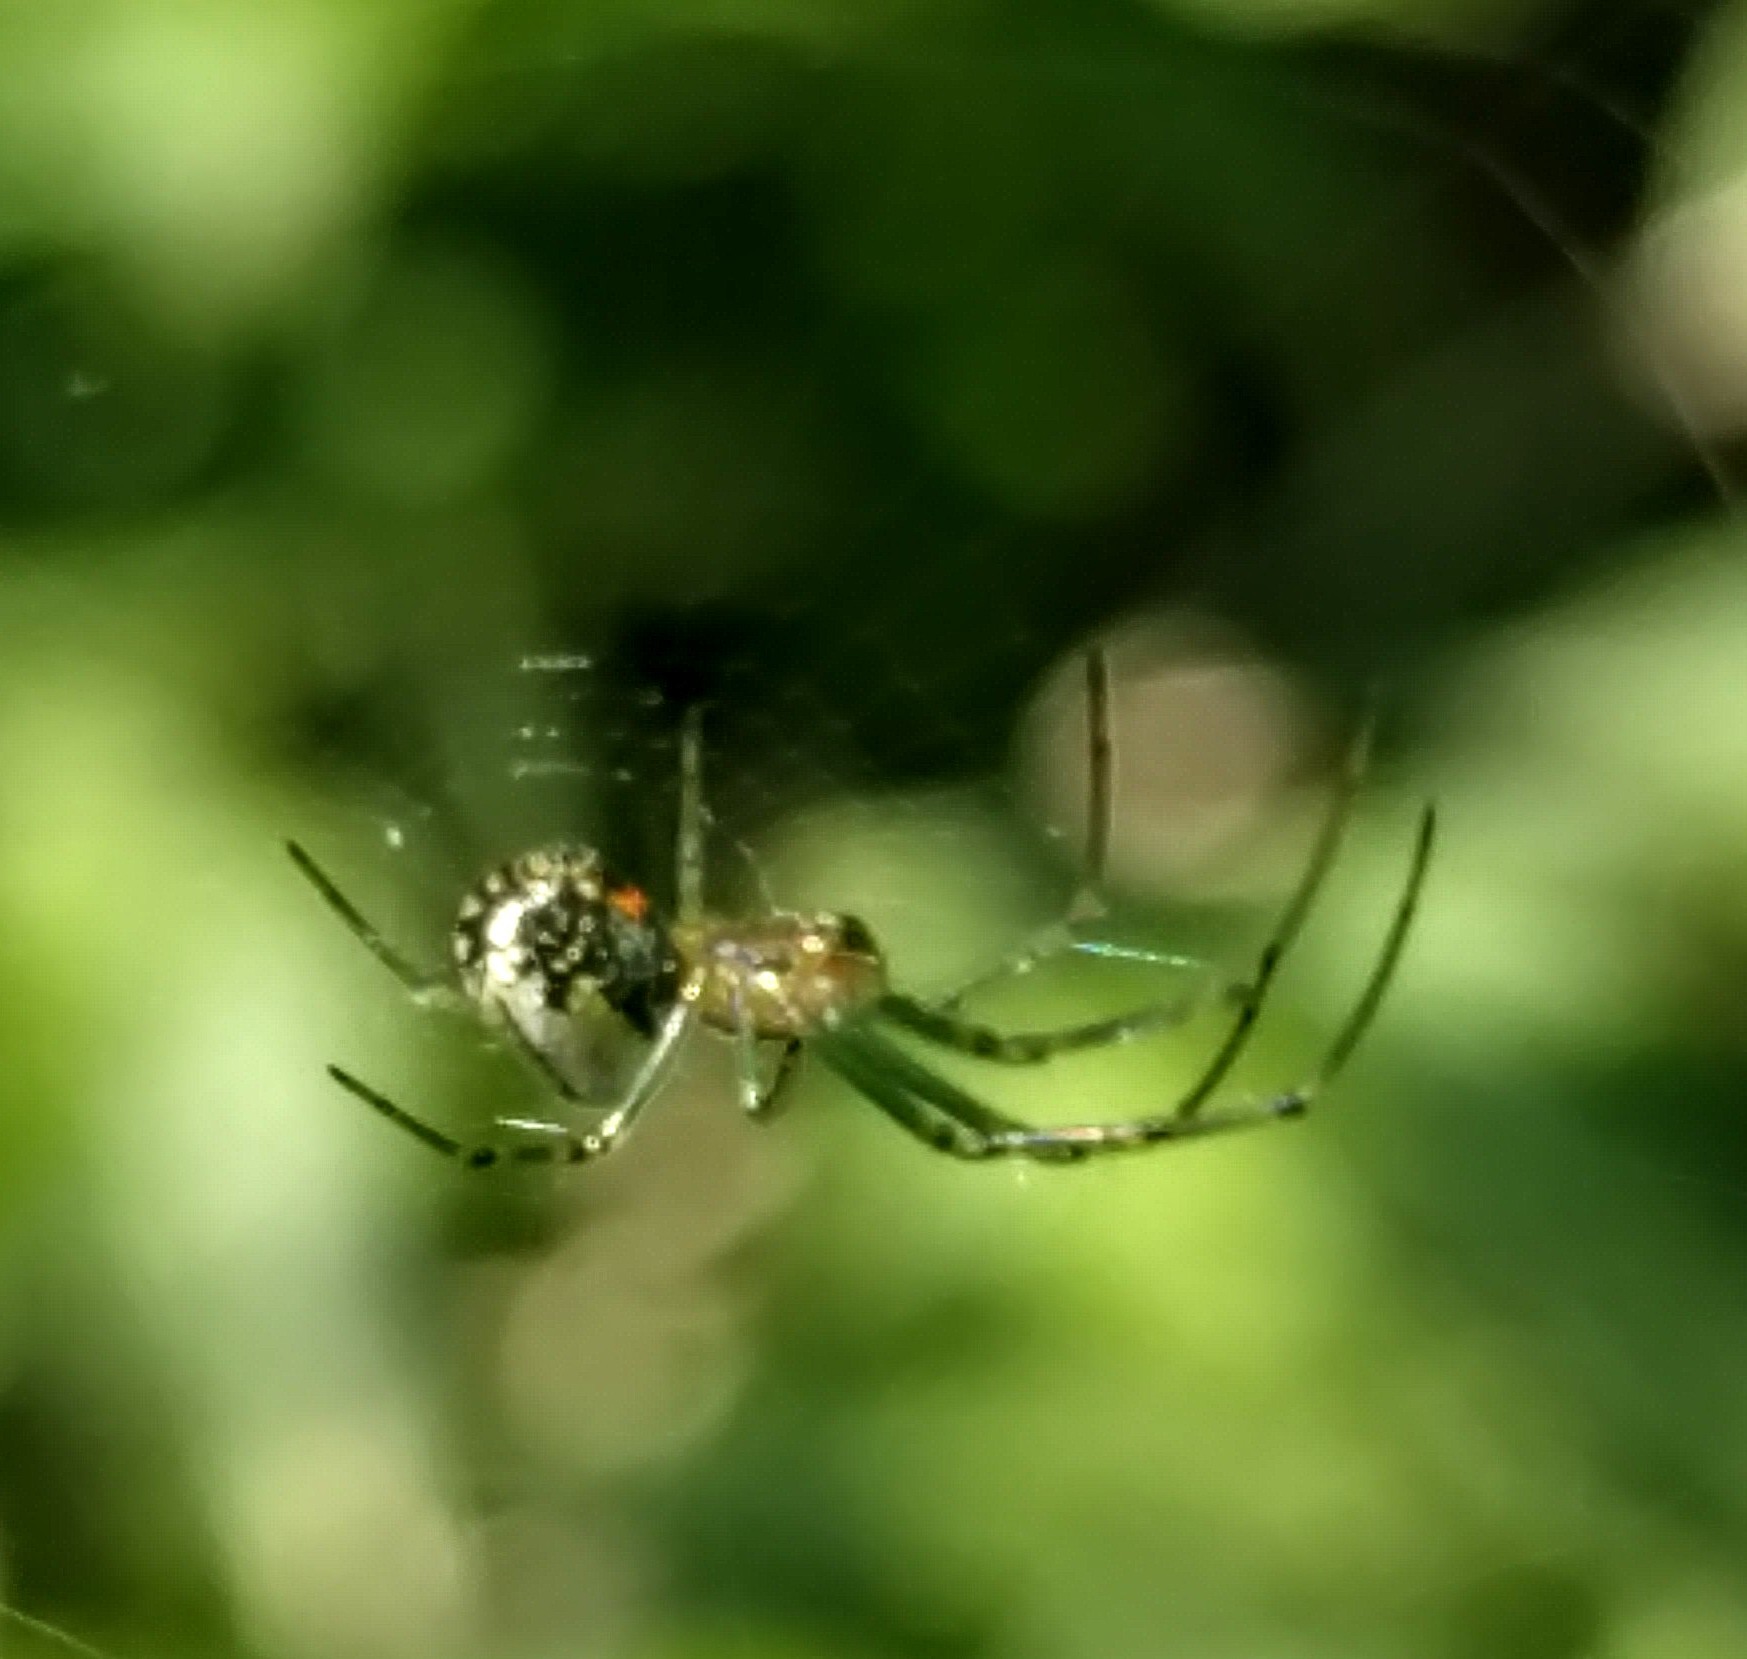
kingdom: Animalia
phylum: Arthropoda
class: Arachnida
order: Araneae
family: Tetragnathidae
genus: Leucauge
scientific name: Leucauge venusta
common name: Longjawed orb weavers
